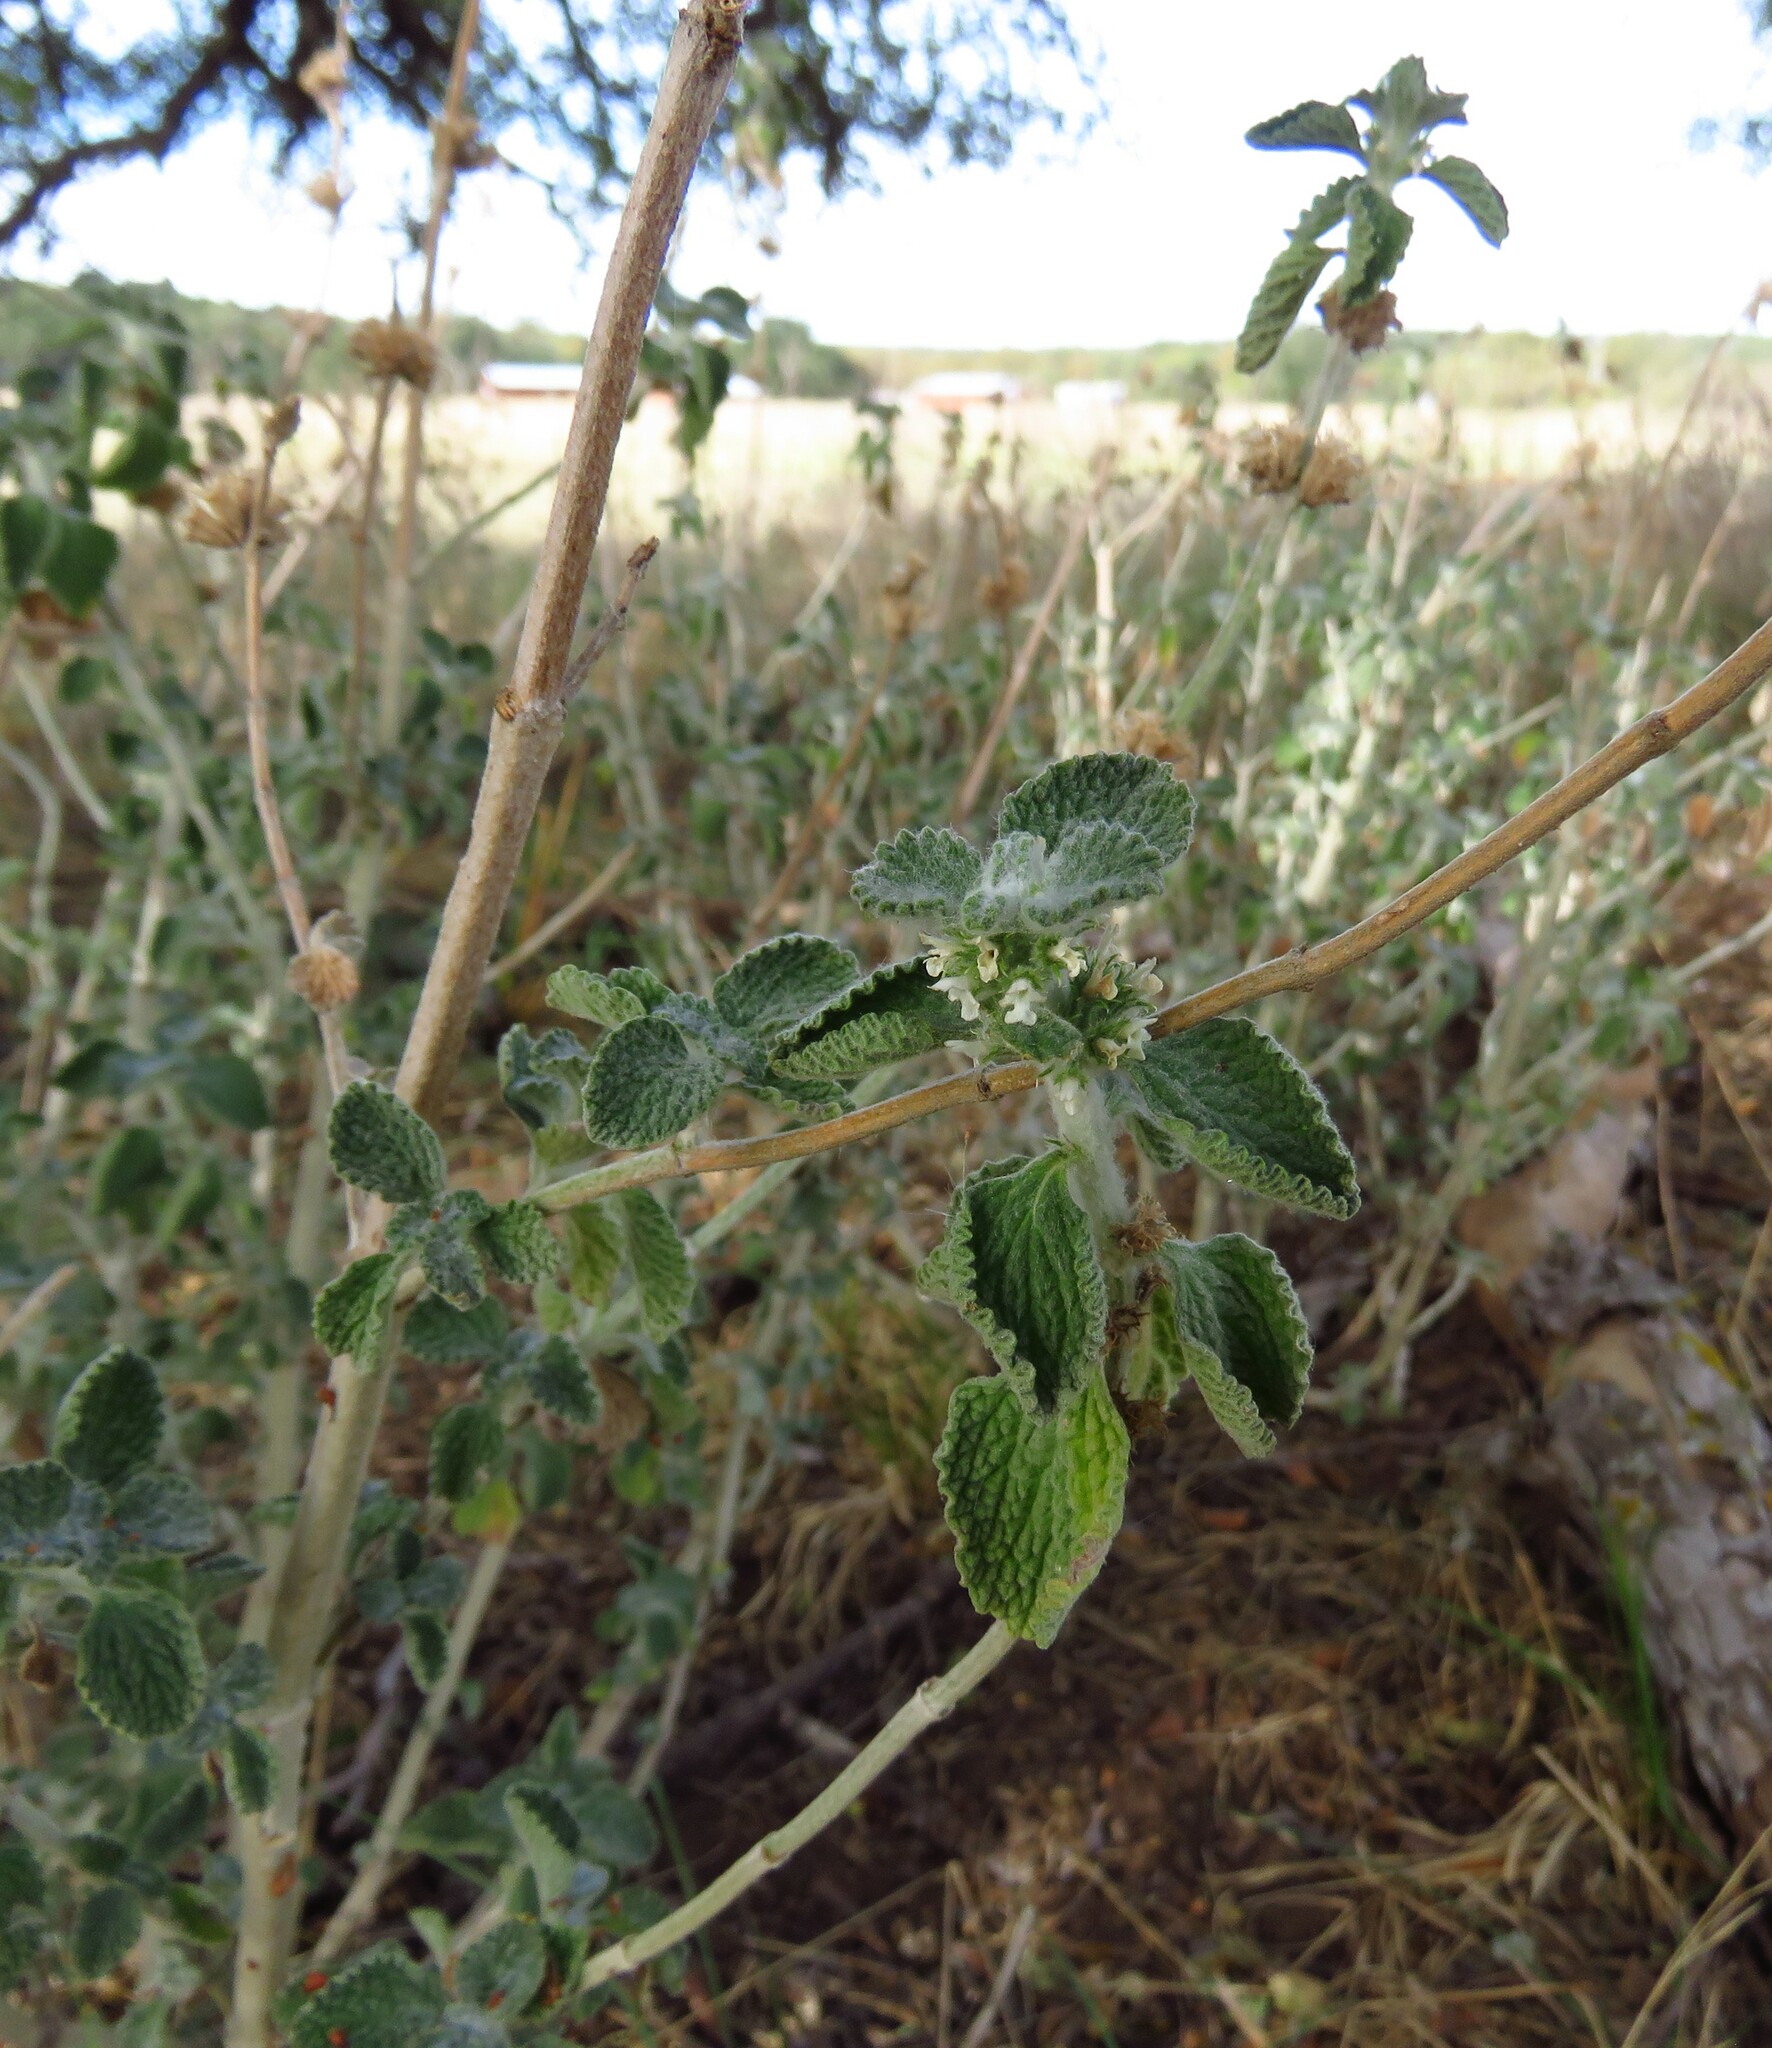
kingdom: Plantae
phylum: Tracheophyta
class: Magnoliopsida
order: Lamiales
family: Lamiaceae
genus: Marrubium
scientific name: Marrubium vulgare
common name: Horehound
